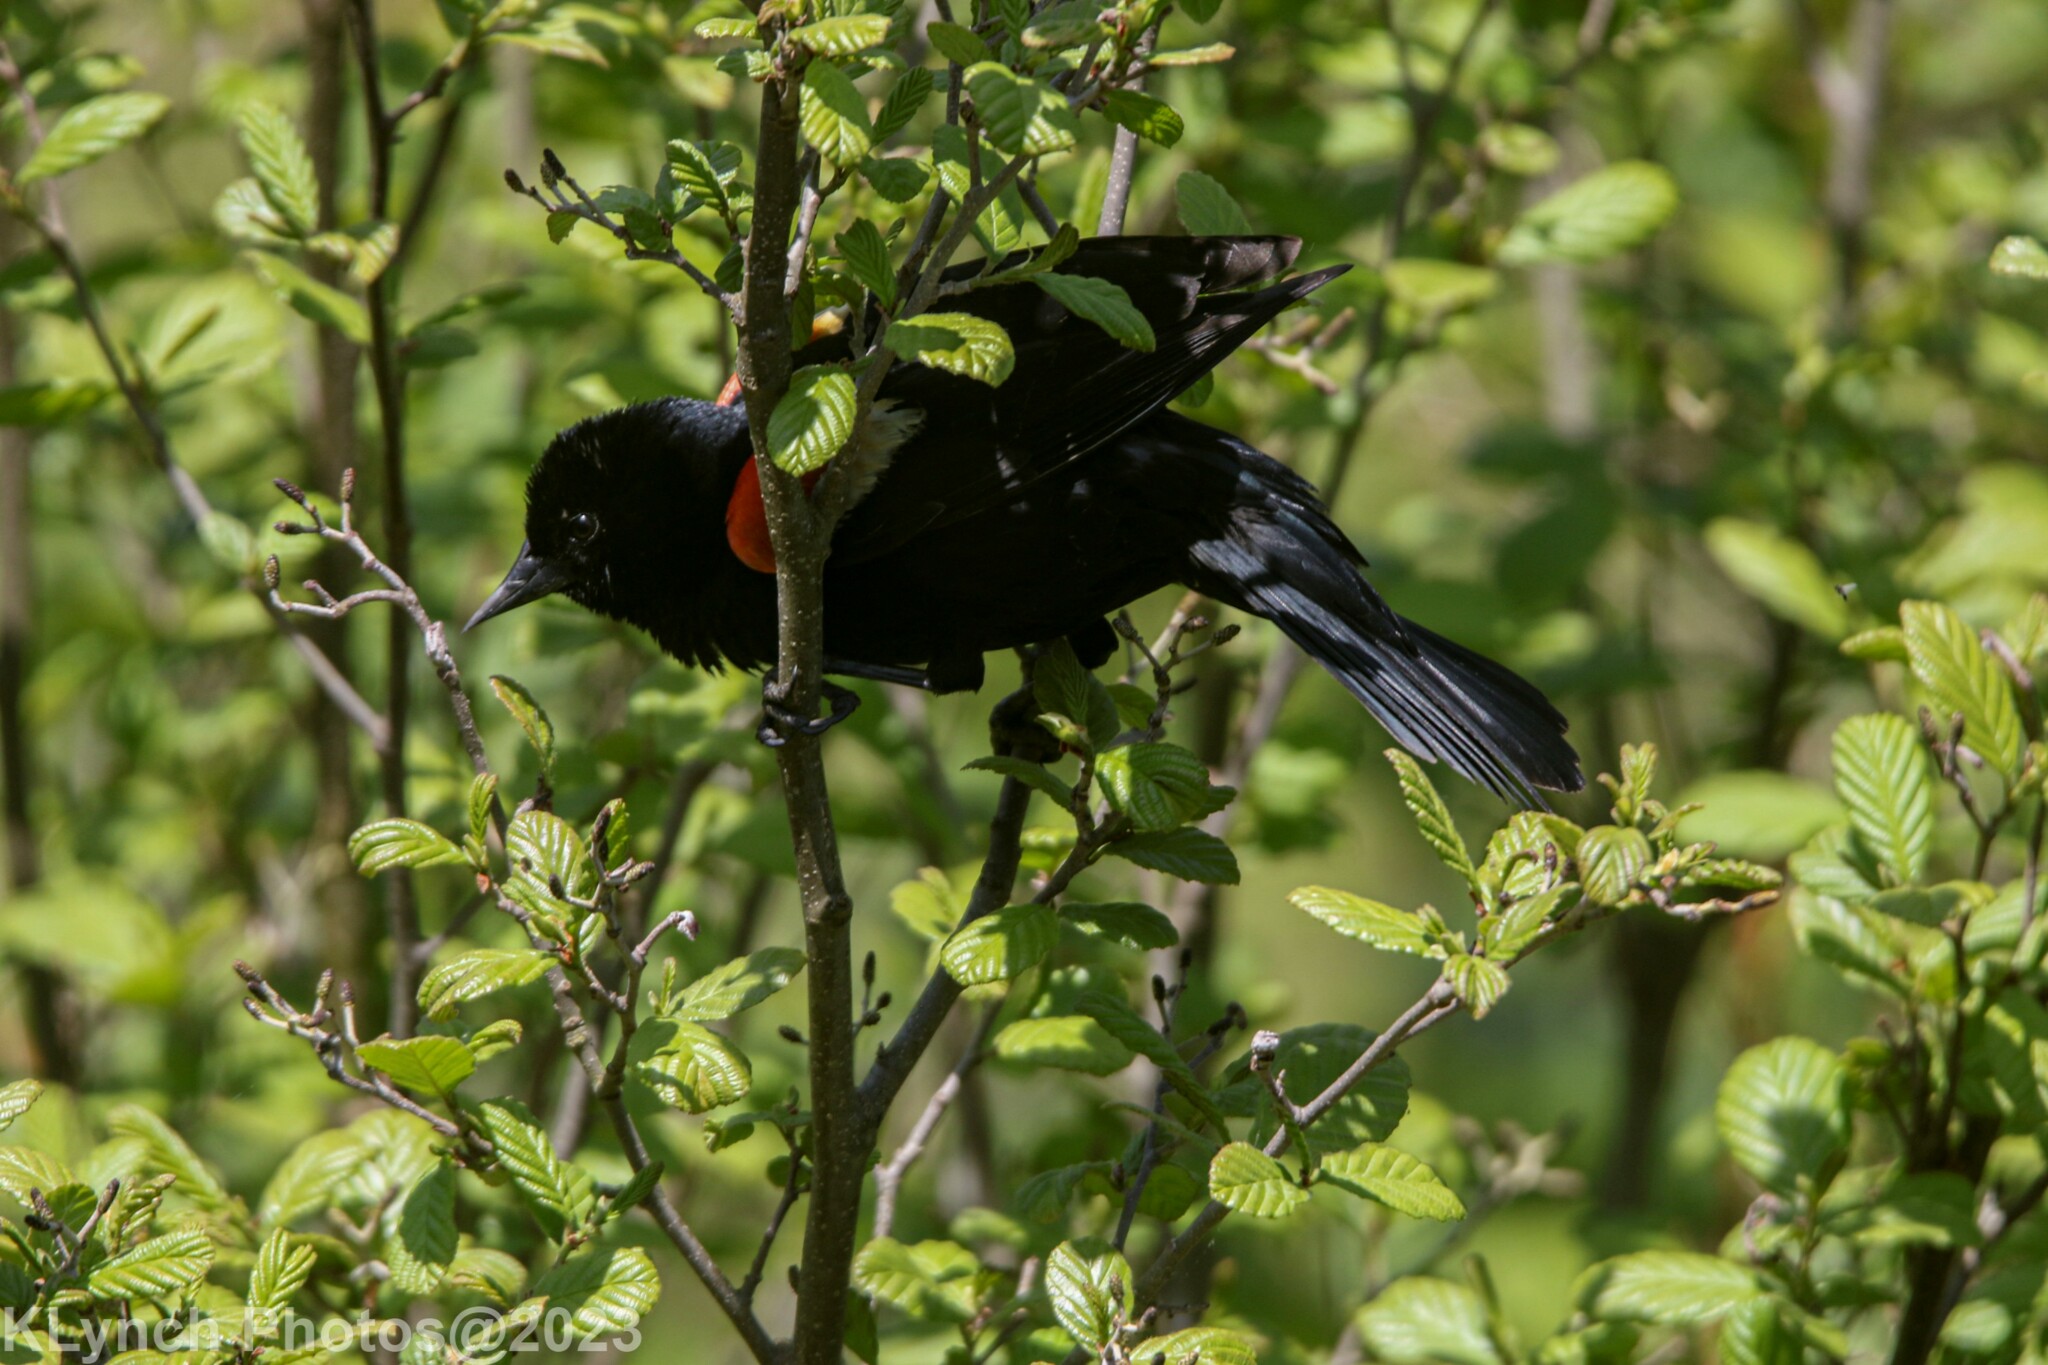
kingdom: Animalia
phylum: Chordata
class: Aves
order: Passeriformes
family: Icteridae
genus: Agelaius
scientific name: Agelaius phoeniceus
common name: Red-winged blackbird
